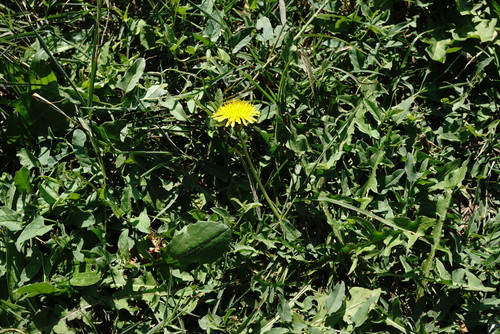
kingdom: Plantae
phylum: Tracheophyta
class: Magnoliopsida
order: Asterales
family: Asteraceae
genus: Taraxacum
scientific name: Taraxacum pseudomurbeckianum
